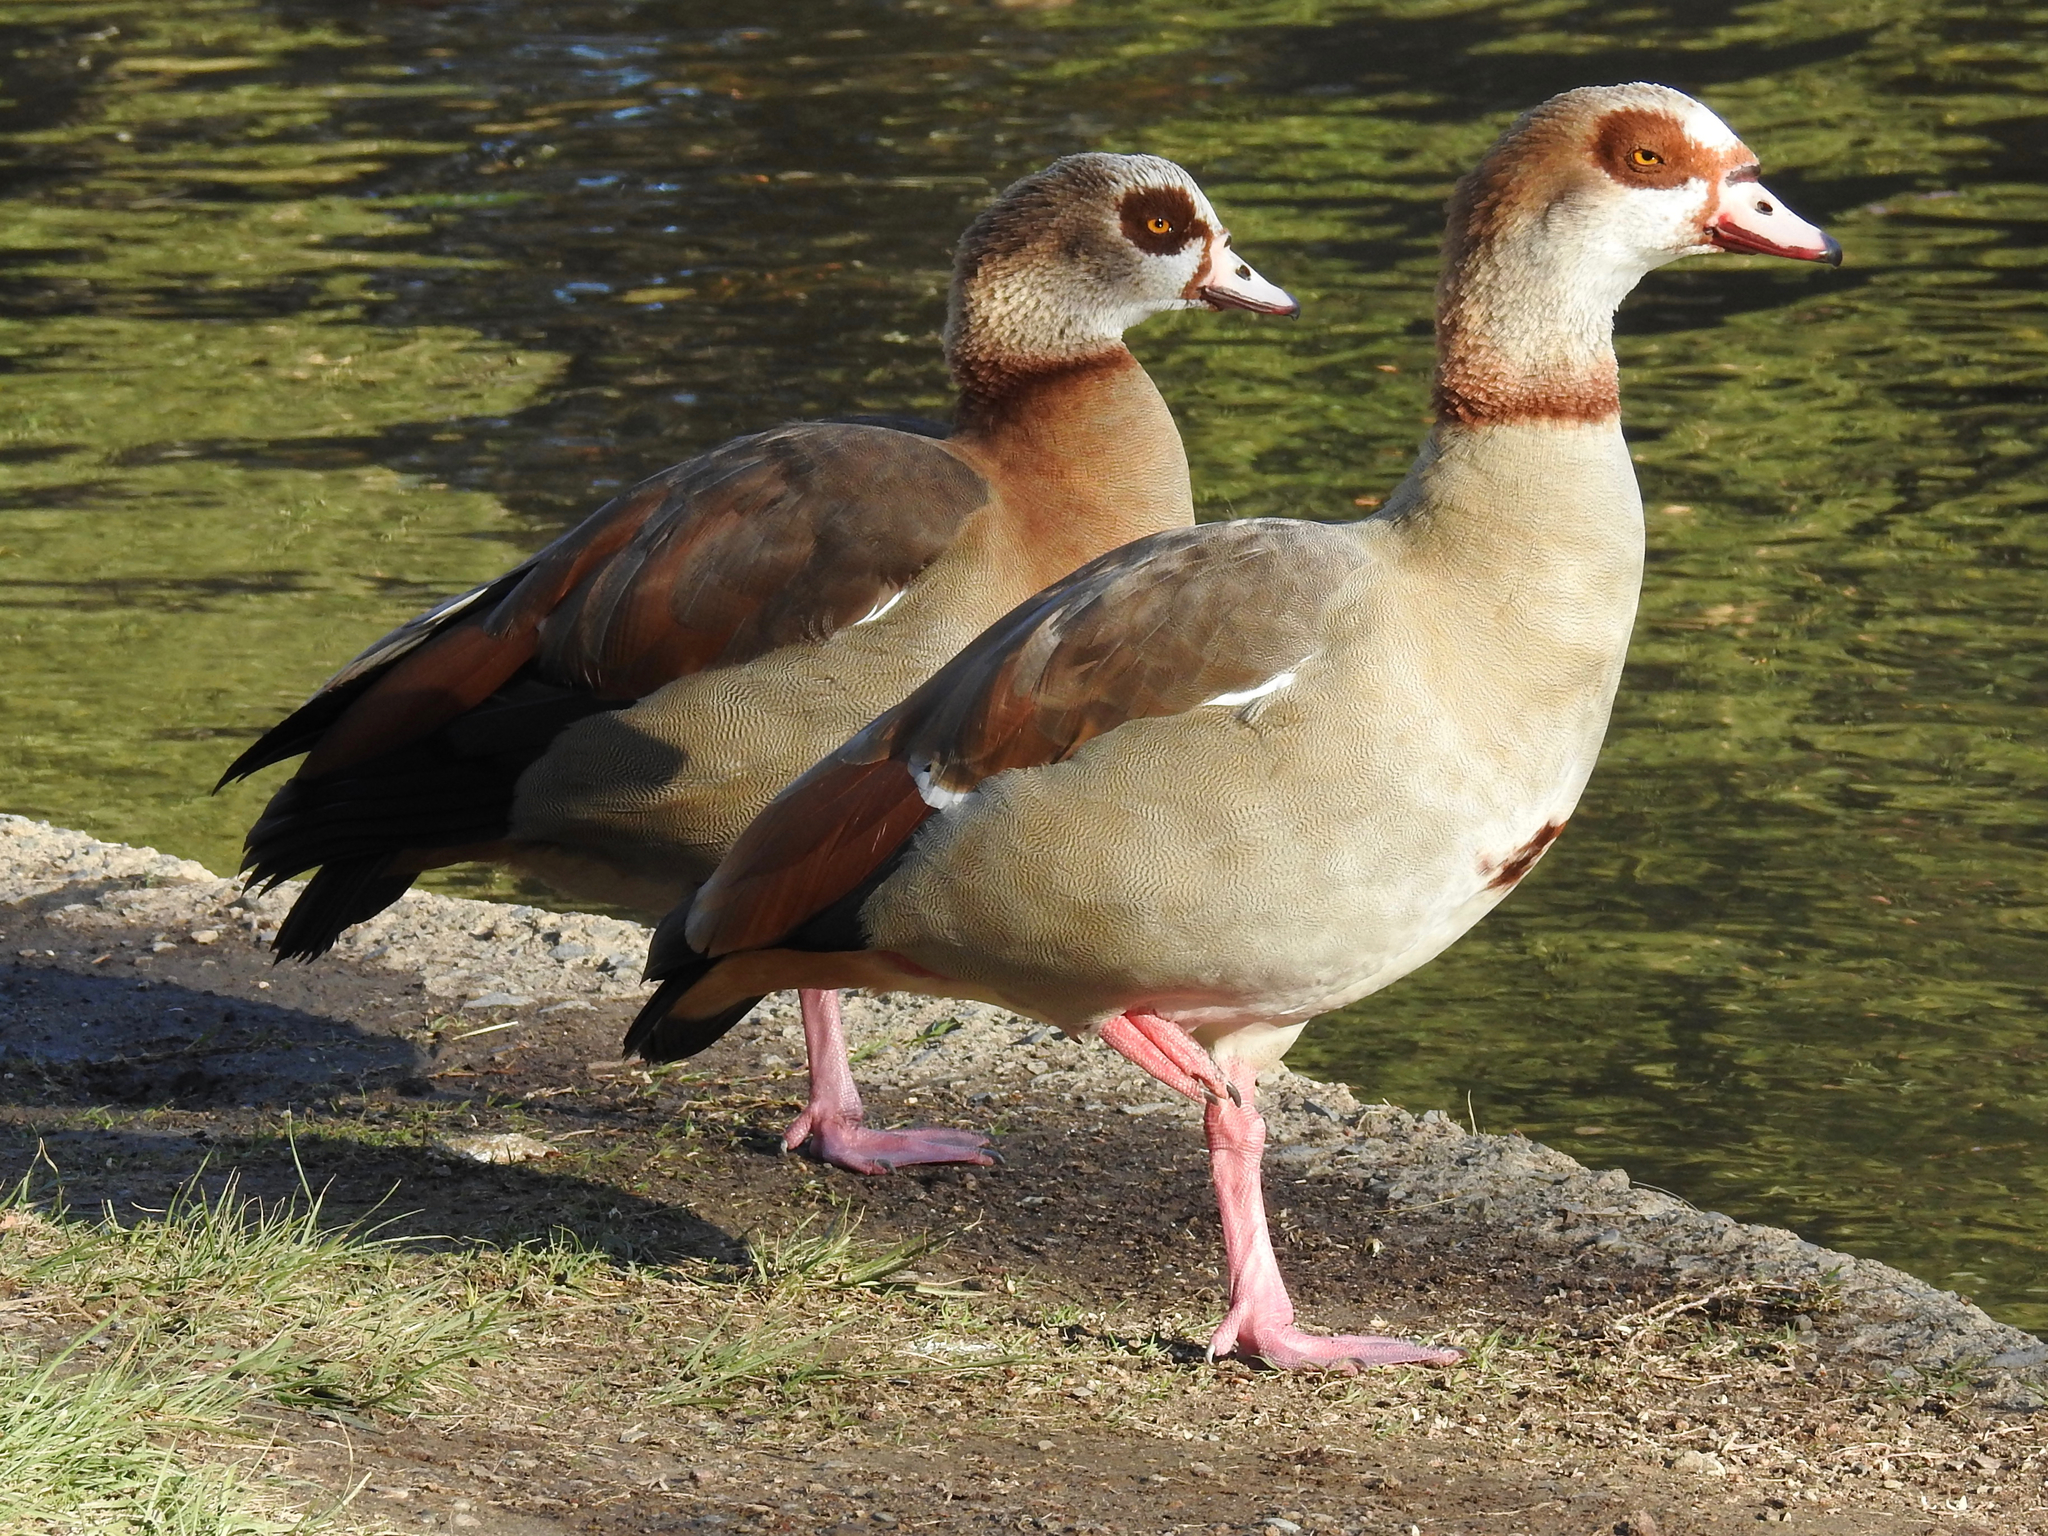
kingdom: Animalia
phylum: Chordata
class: Aves
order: Anseriformes
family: Anatidae
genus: Alopochen
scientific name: Alopochen aegyptiaca
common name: Egyptian goose
